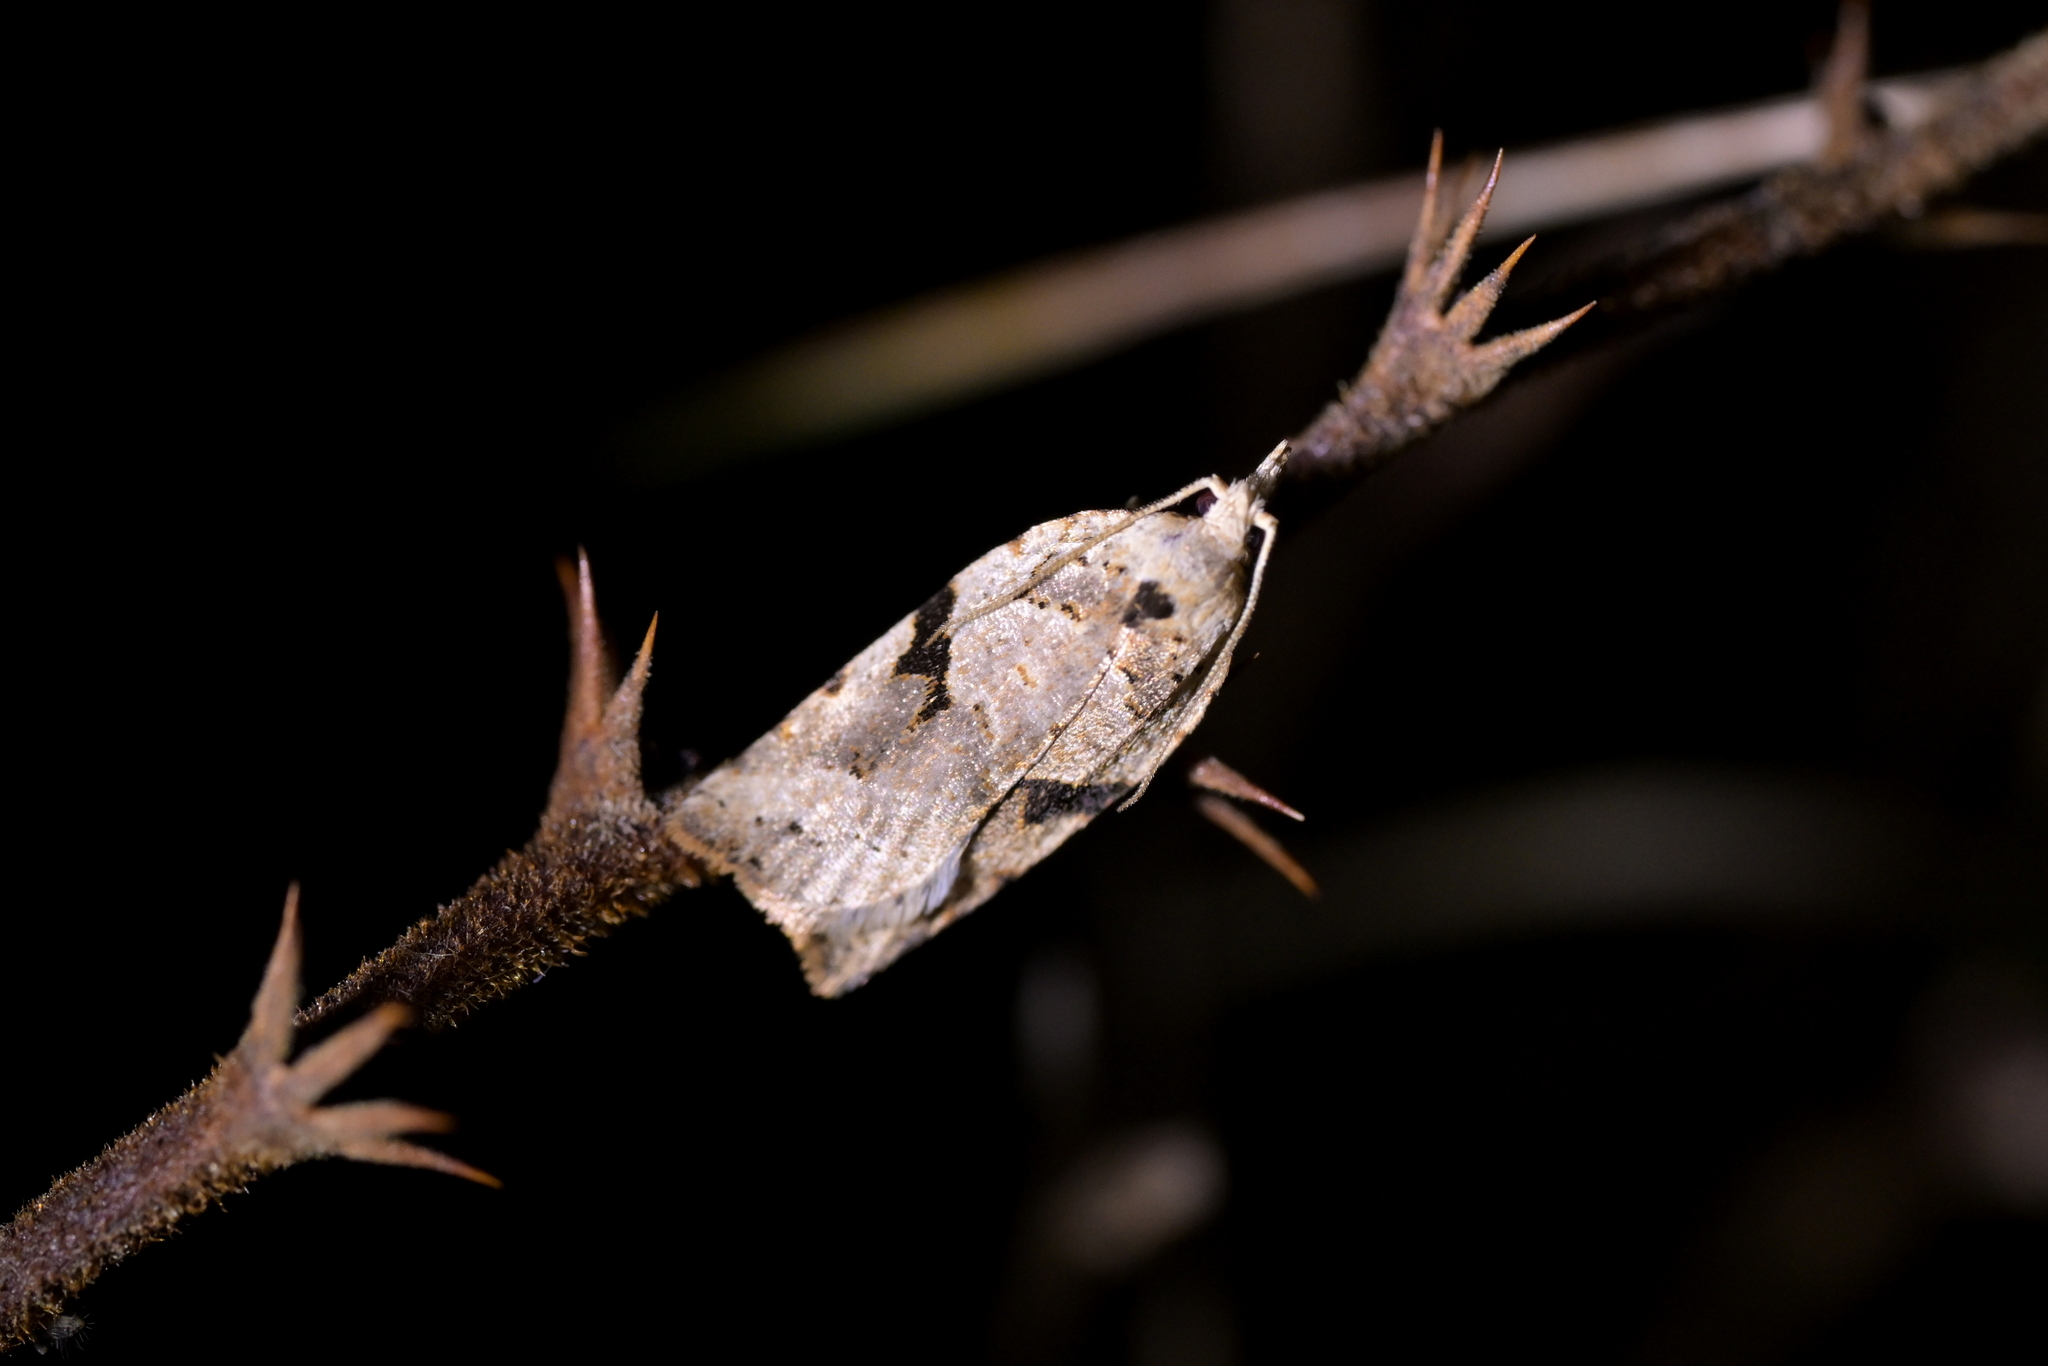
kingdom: Animalia
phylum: Arthropoda
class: Insecta
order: Lepidoptera
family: Tortricidae
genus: Leucotenes
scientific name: Leucotenes coprosmae
